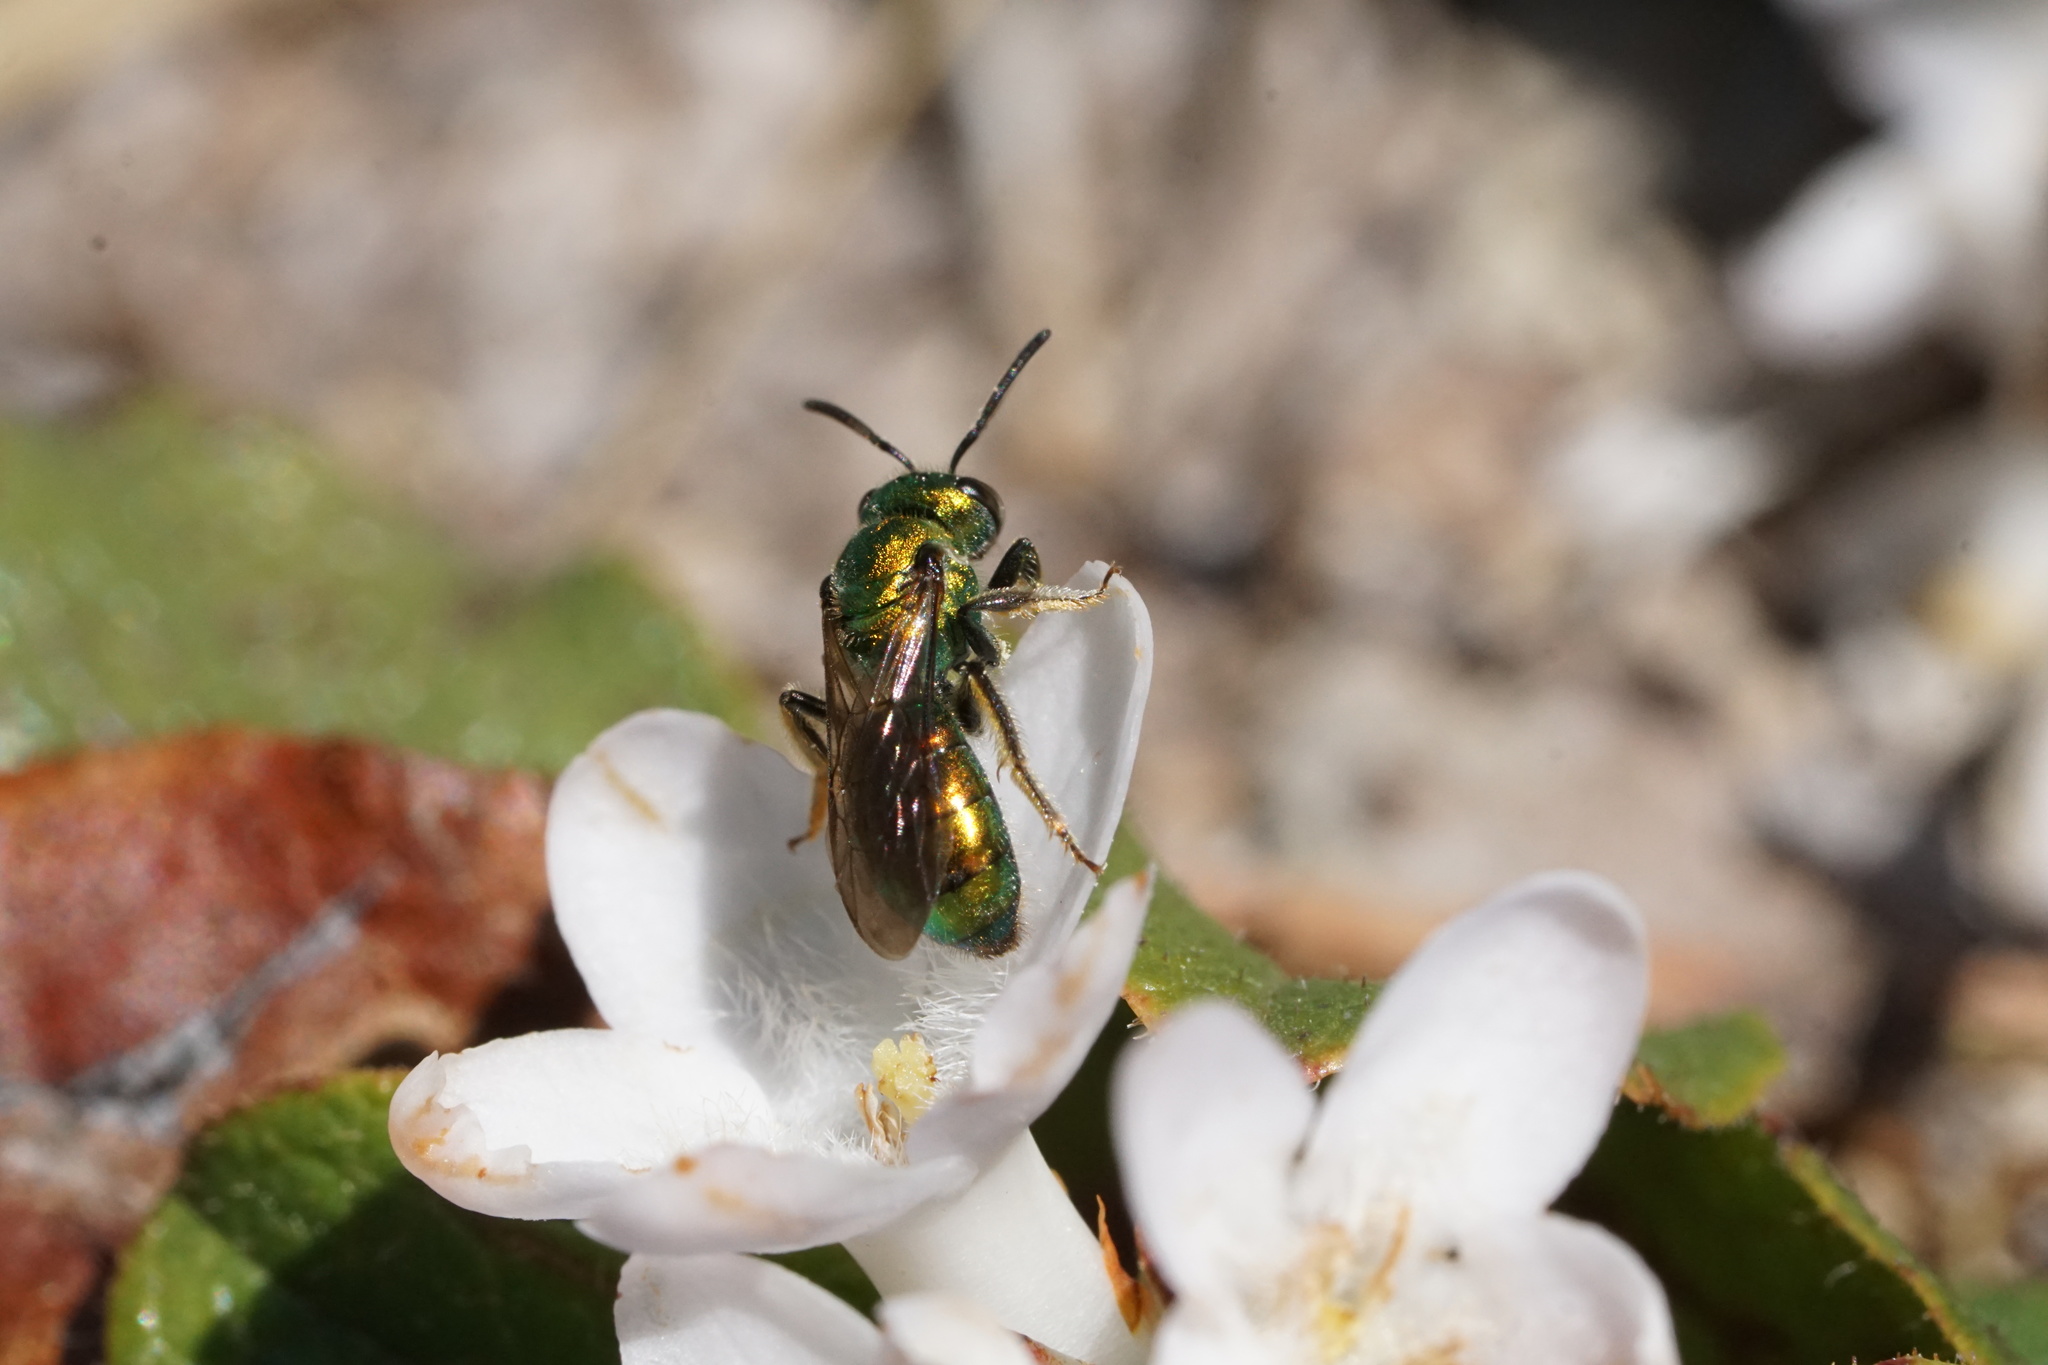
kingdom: Animalia
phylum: Arthropoda
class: Insecta
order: Hymenoptera
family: Halictidae
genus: Augochlora
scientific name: Augochlora pura
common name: Pure green sweat bee
